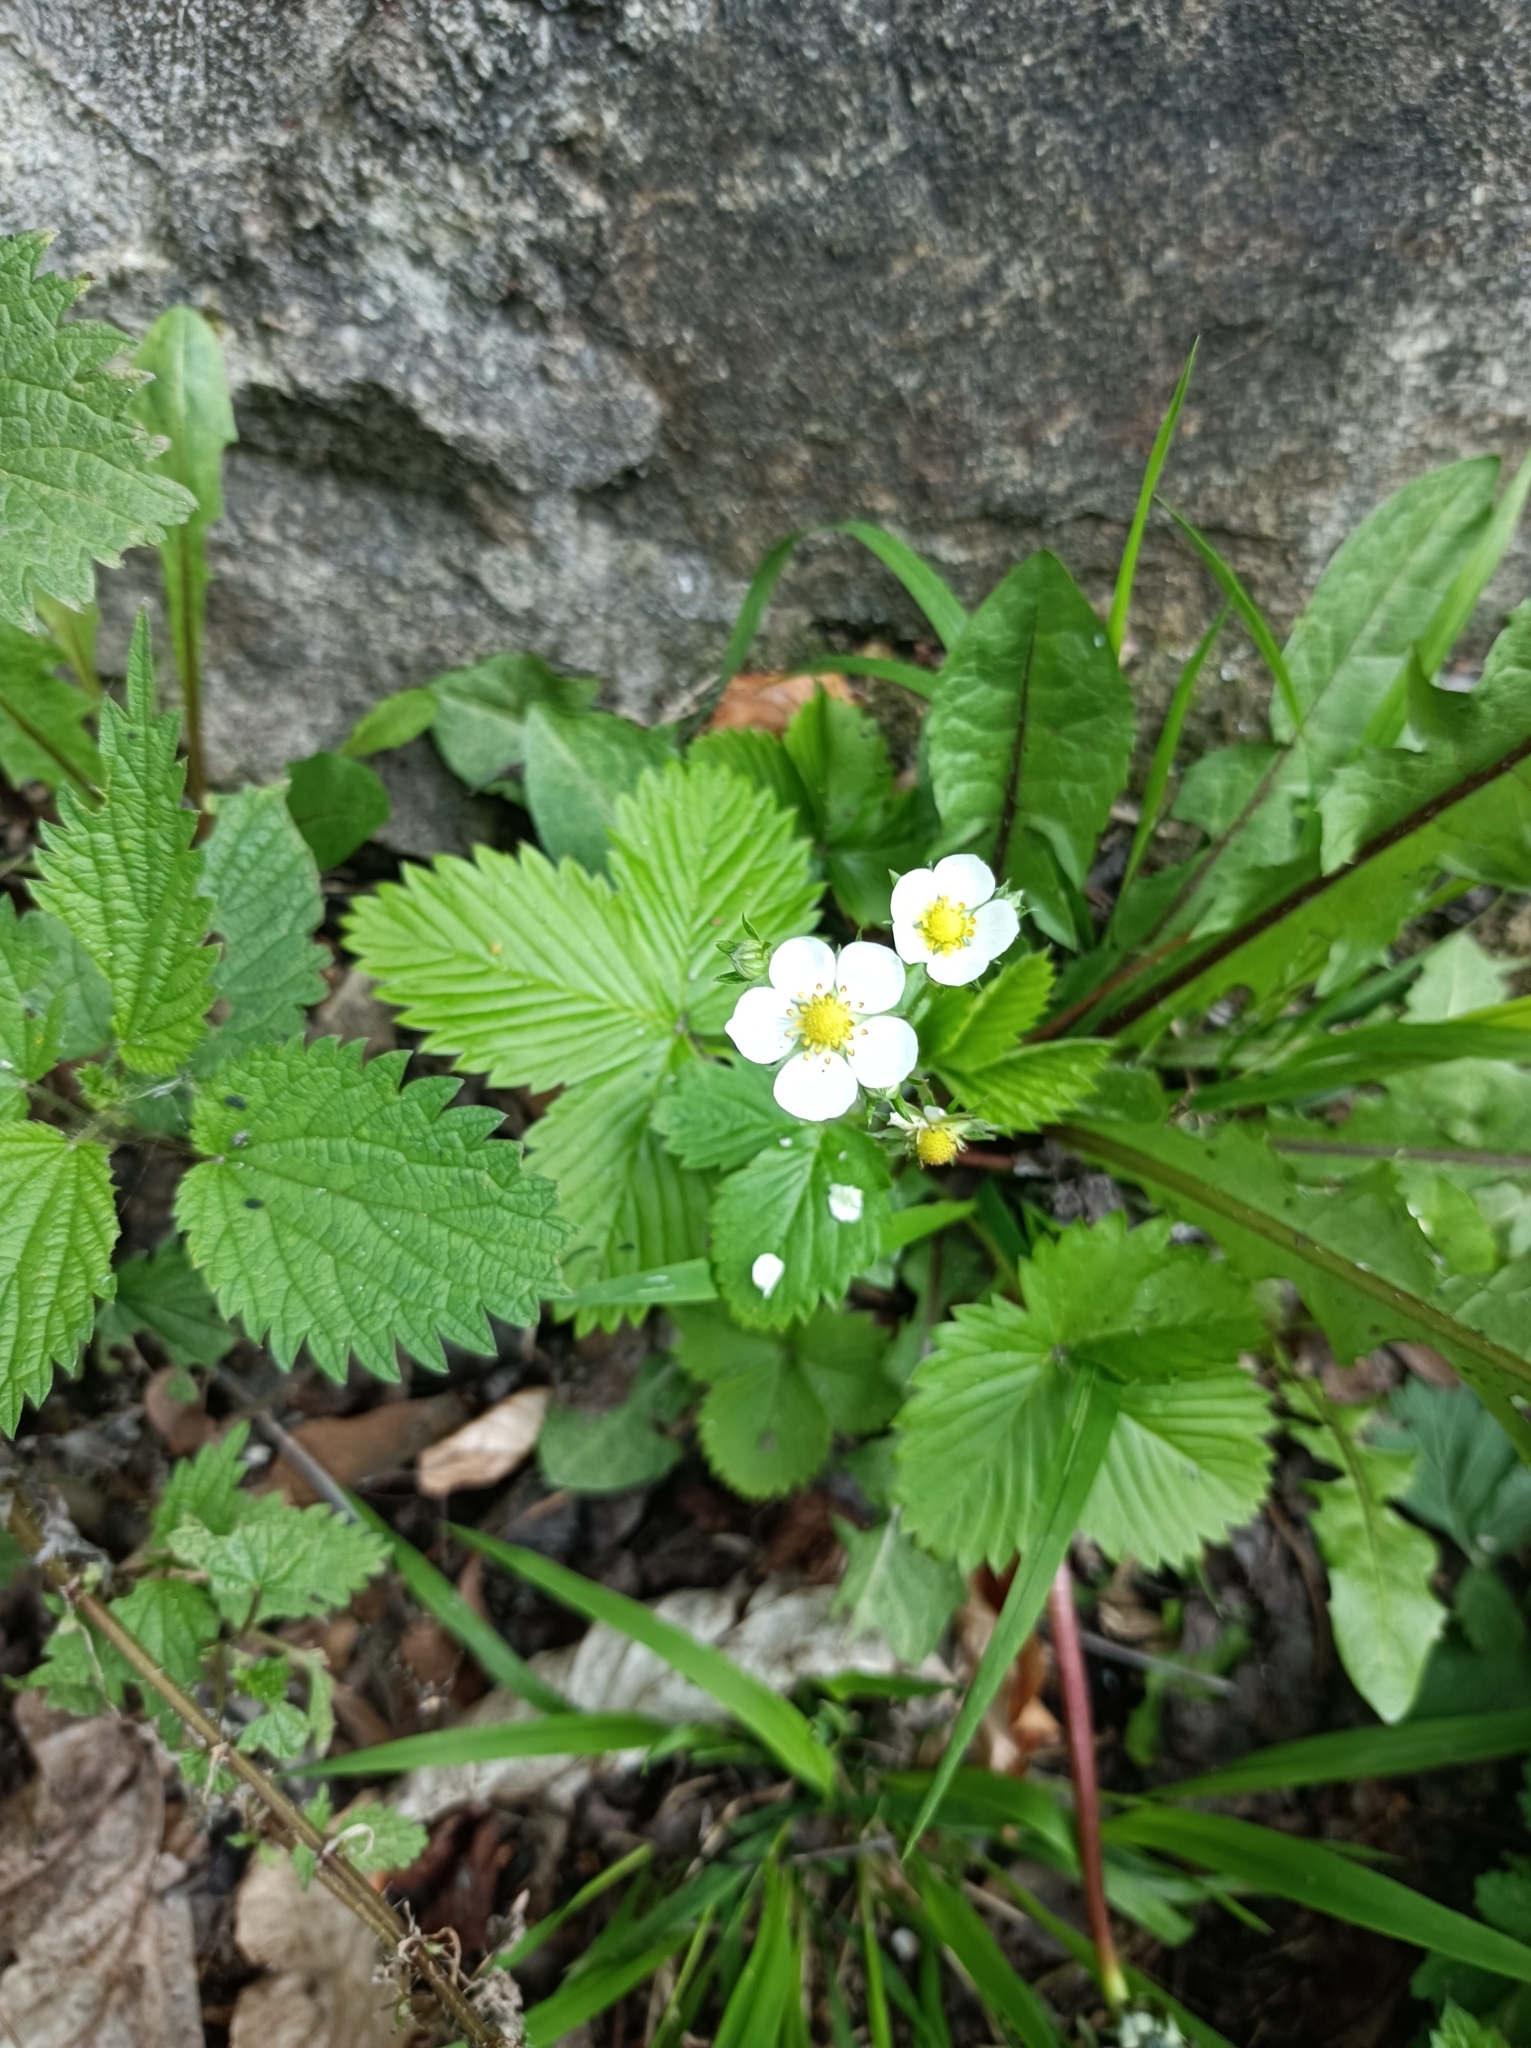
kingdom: Plantae
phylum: Tracheophyta
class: Magnoliopsida
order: Rosales
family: Rosaceae
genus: Fragaria
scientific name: Fragaria vesca
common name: Wild strawberry
